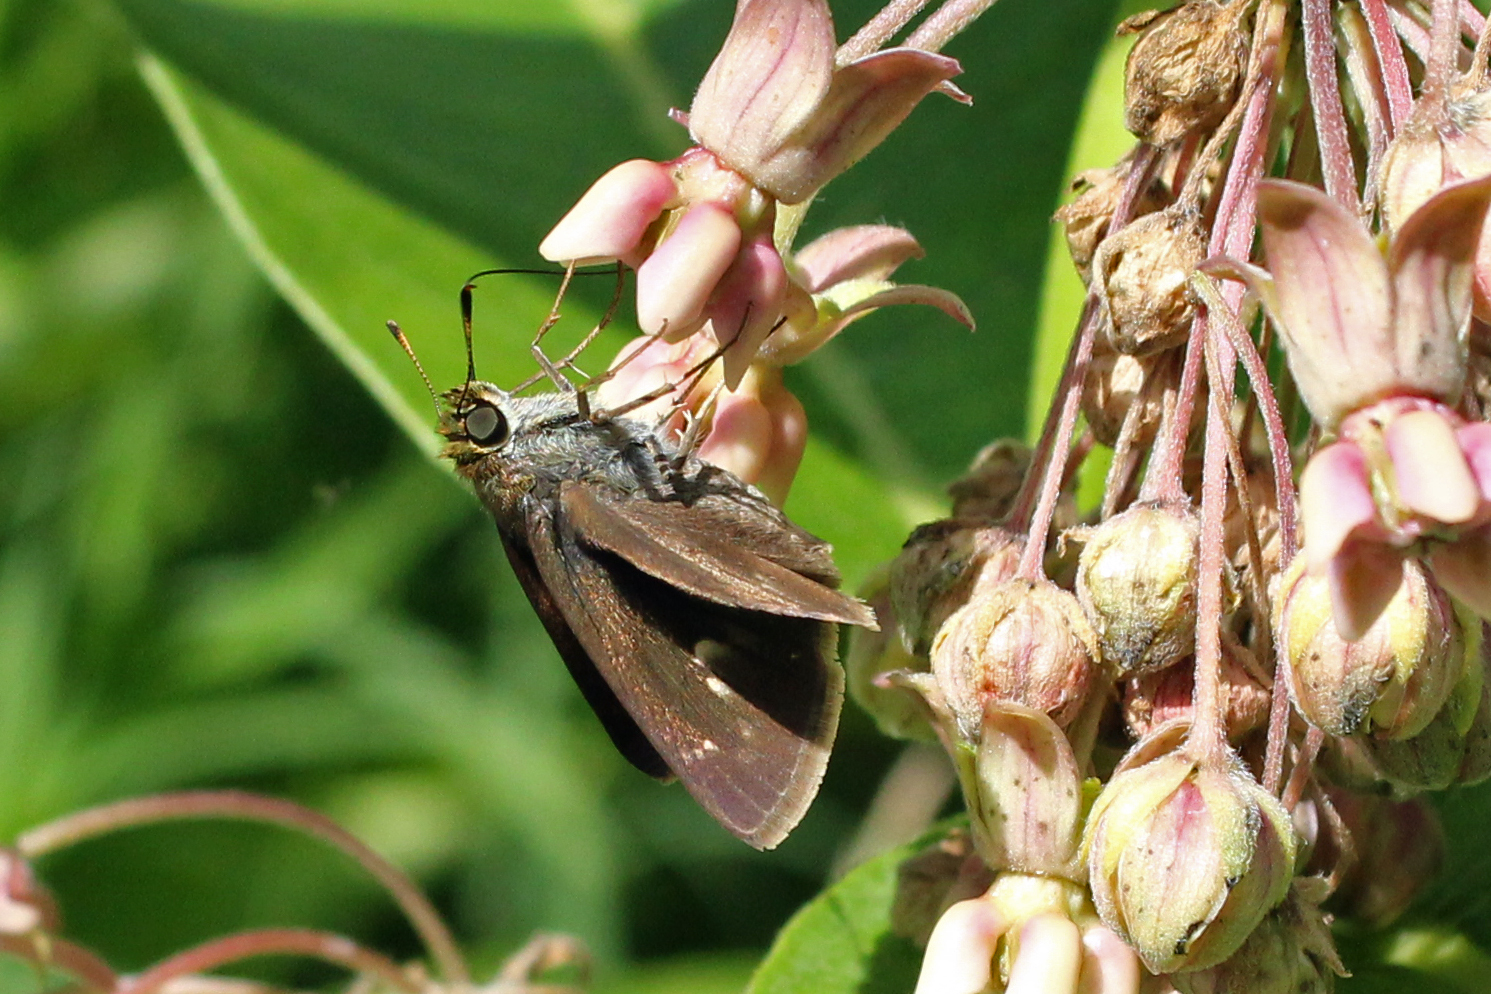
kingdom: Animalia
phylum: Arthropoda
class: Insecta
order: Lepidoptera
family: Hesperiidae
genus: Euphyes
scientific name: Euphyes vestris
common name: Dun skipper
